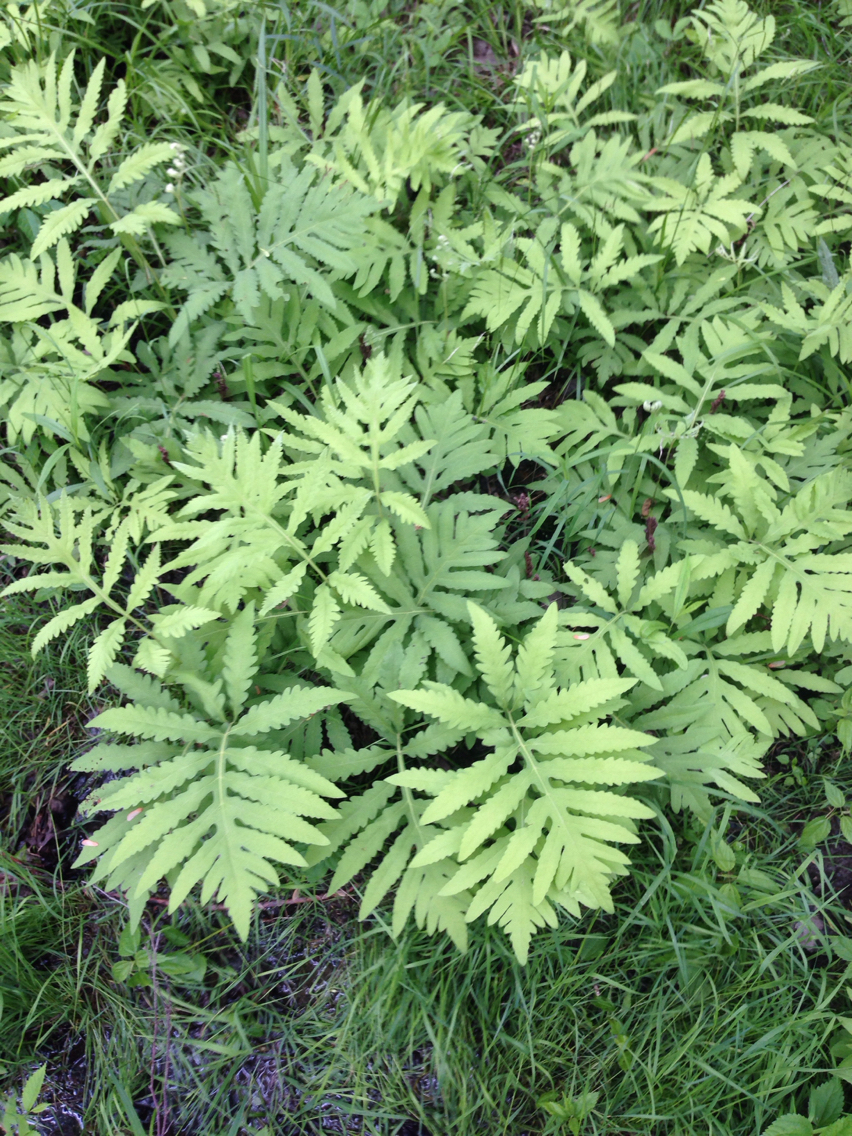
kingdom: Plantae
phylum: Tracheophyta
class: Polypodiopsida
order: Polypodiales
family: Onocleaceae
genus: Onoclea
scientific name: Onoclea sensibilis
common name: Sensitive fern
